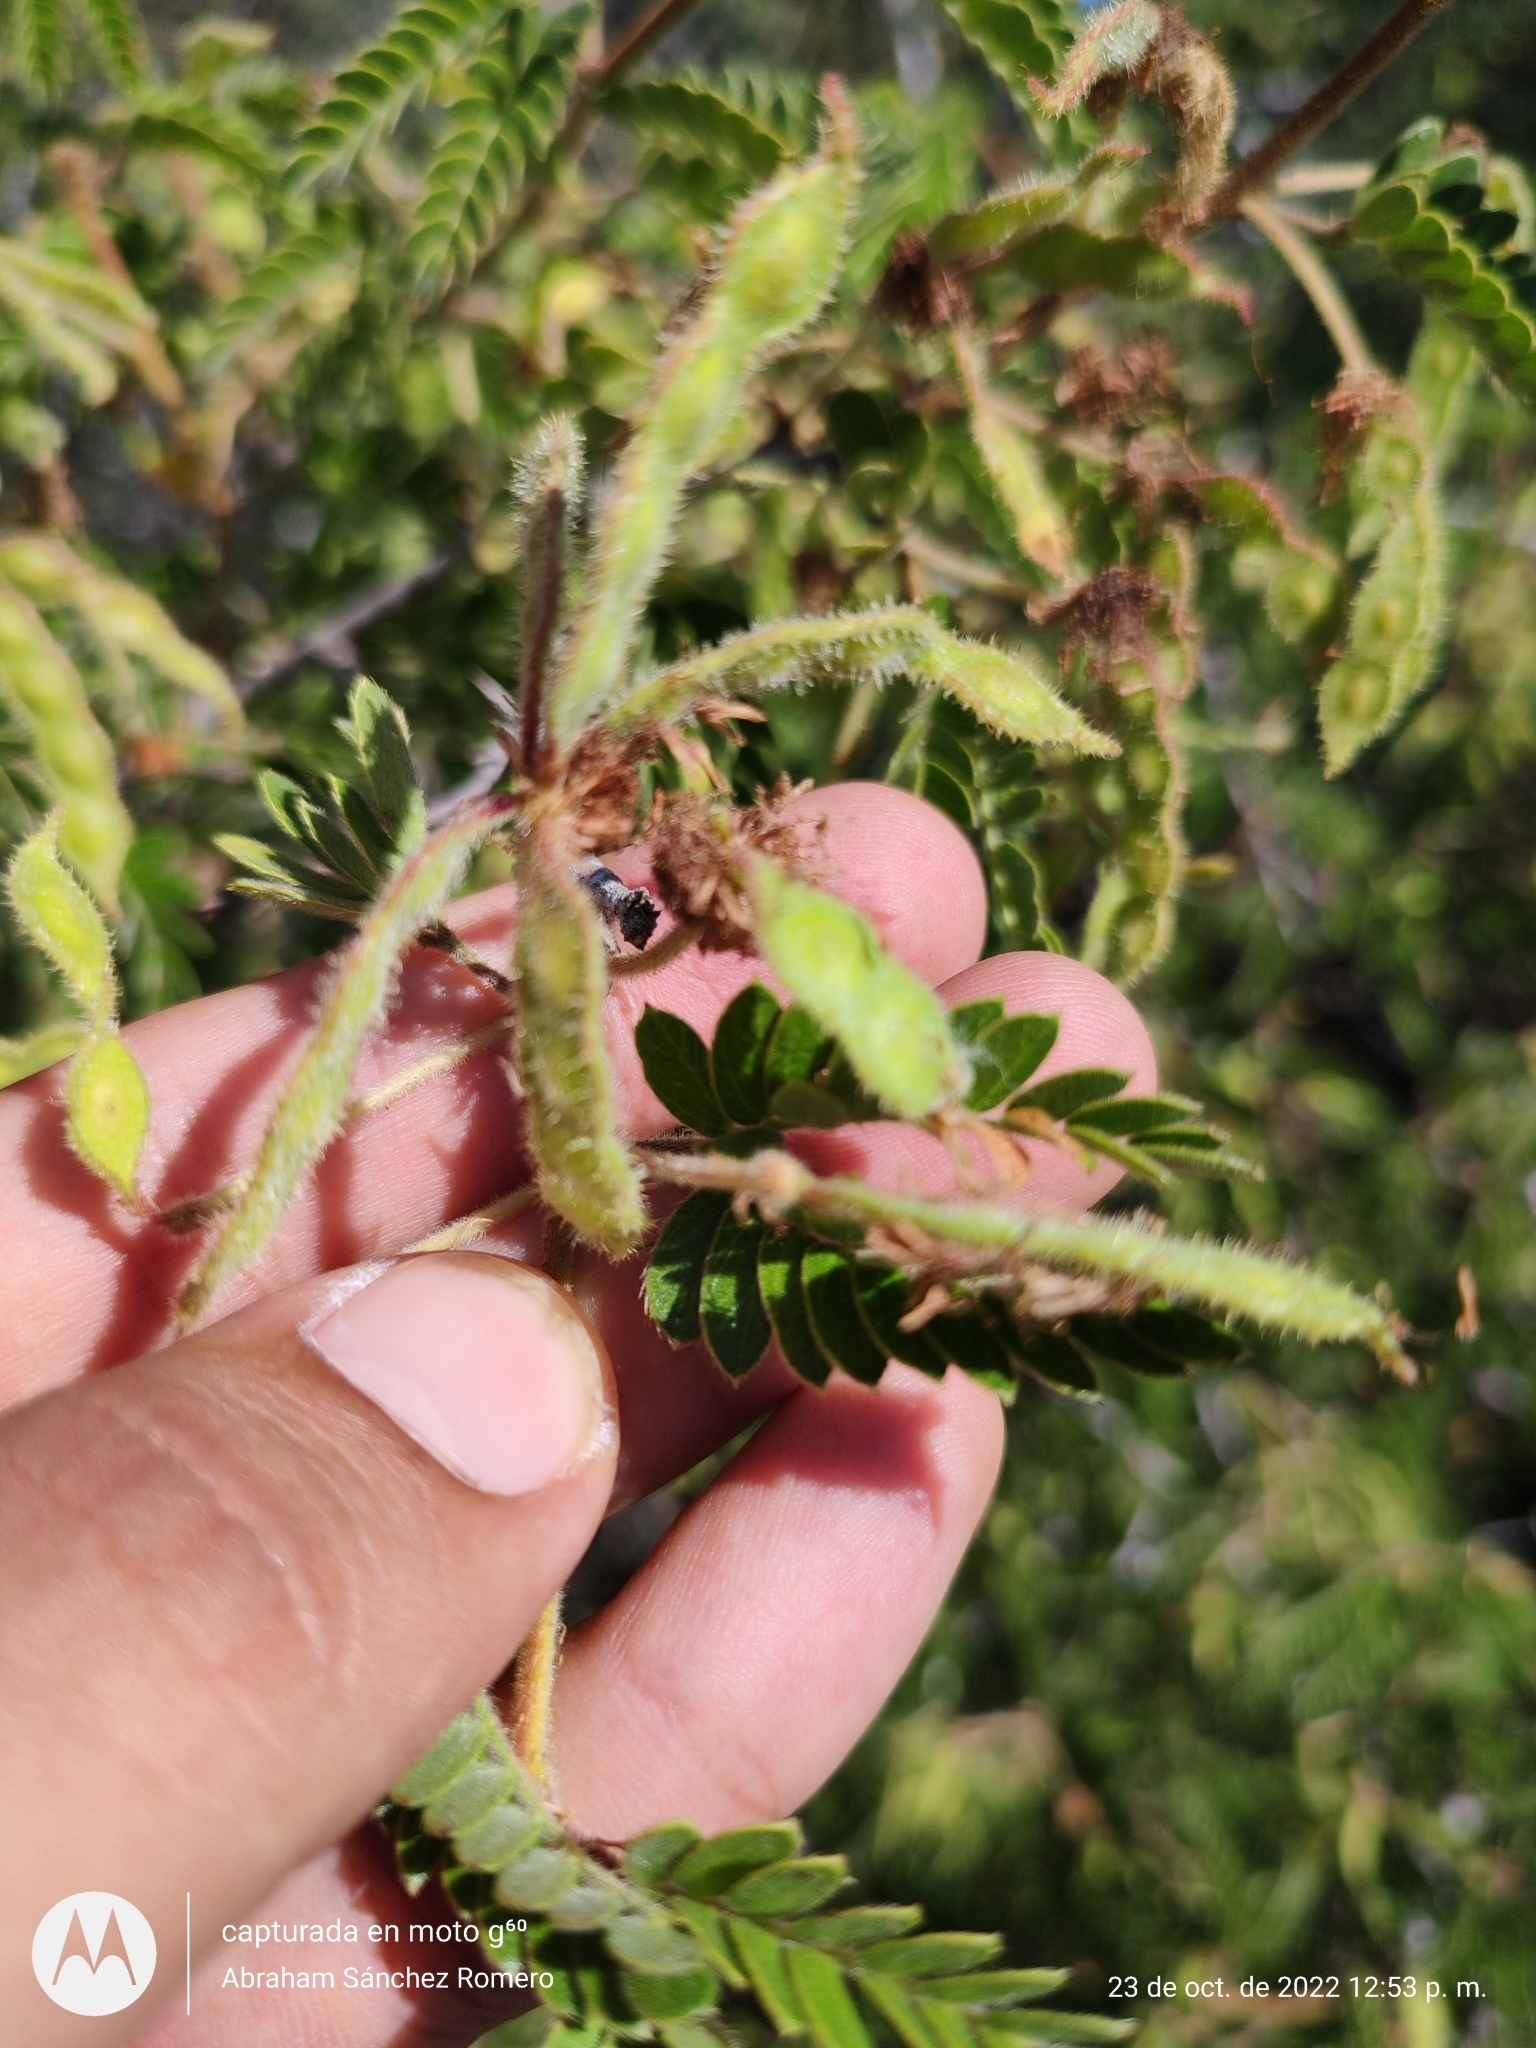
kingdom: Plantae
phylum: Tracheophyta
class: Magnoliopsida
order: Fabales
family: Fabaceae
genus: Mimosa
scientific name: Mimosa tricephala
